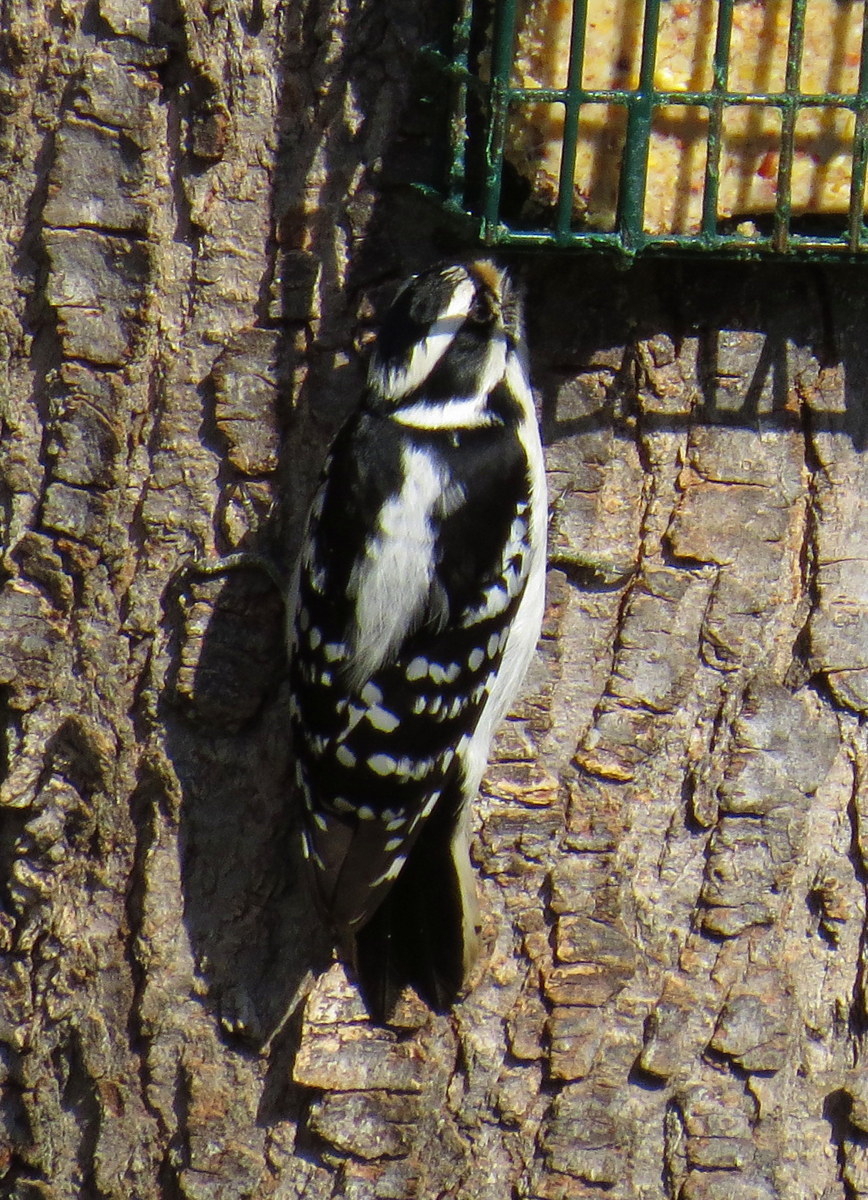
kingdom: Animalia
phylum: Chordata
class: Aves
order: Piciformes
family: Picidae
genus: Dryobates
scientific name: Dryobates pubescens
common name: Downy woodpecker
